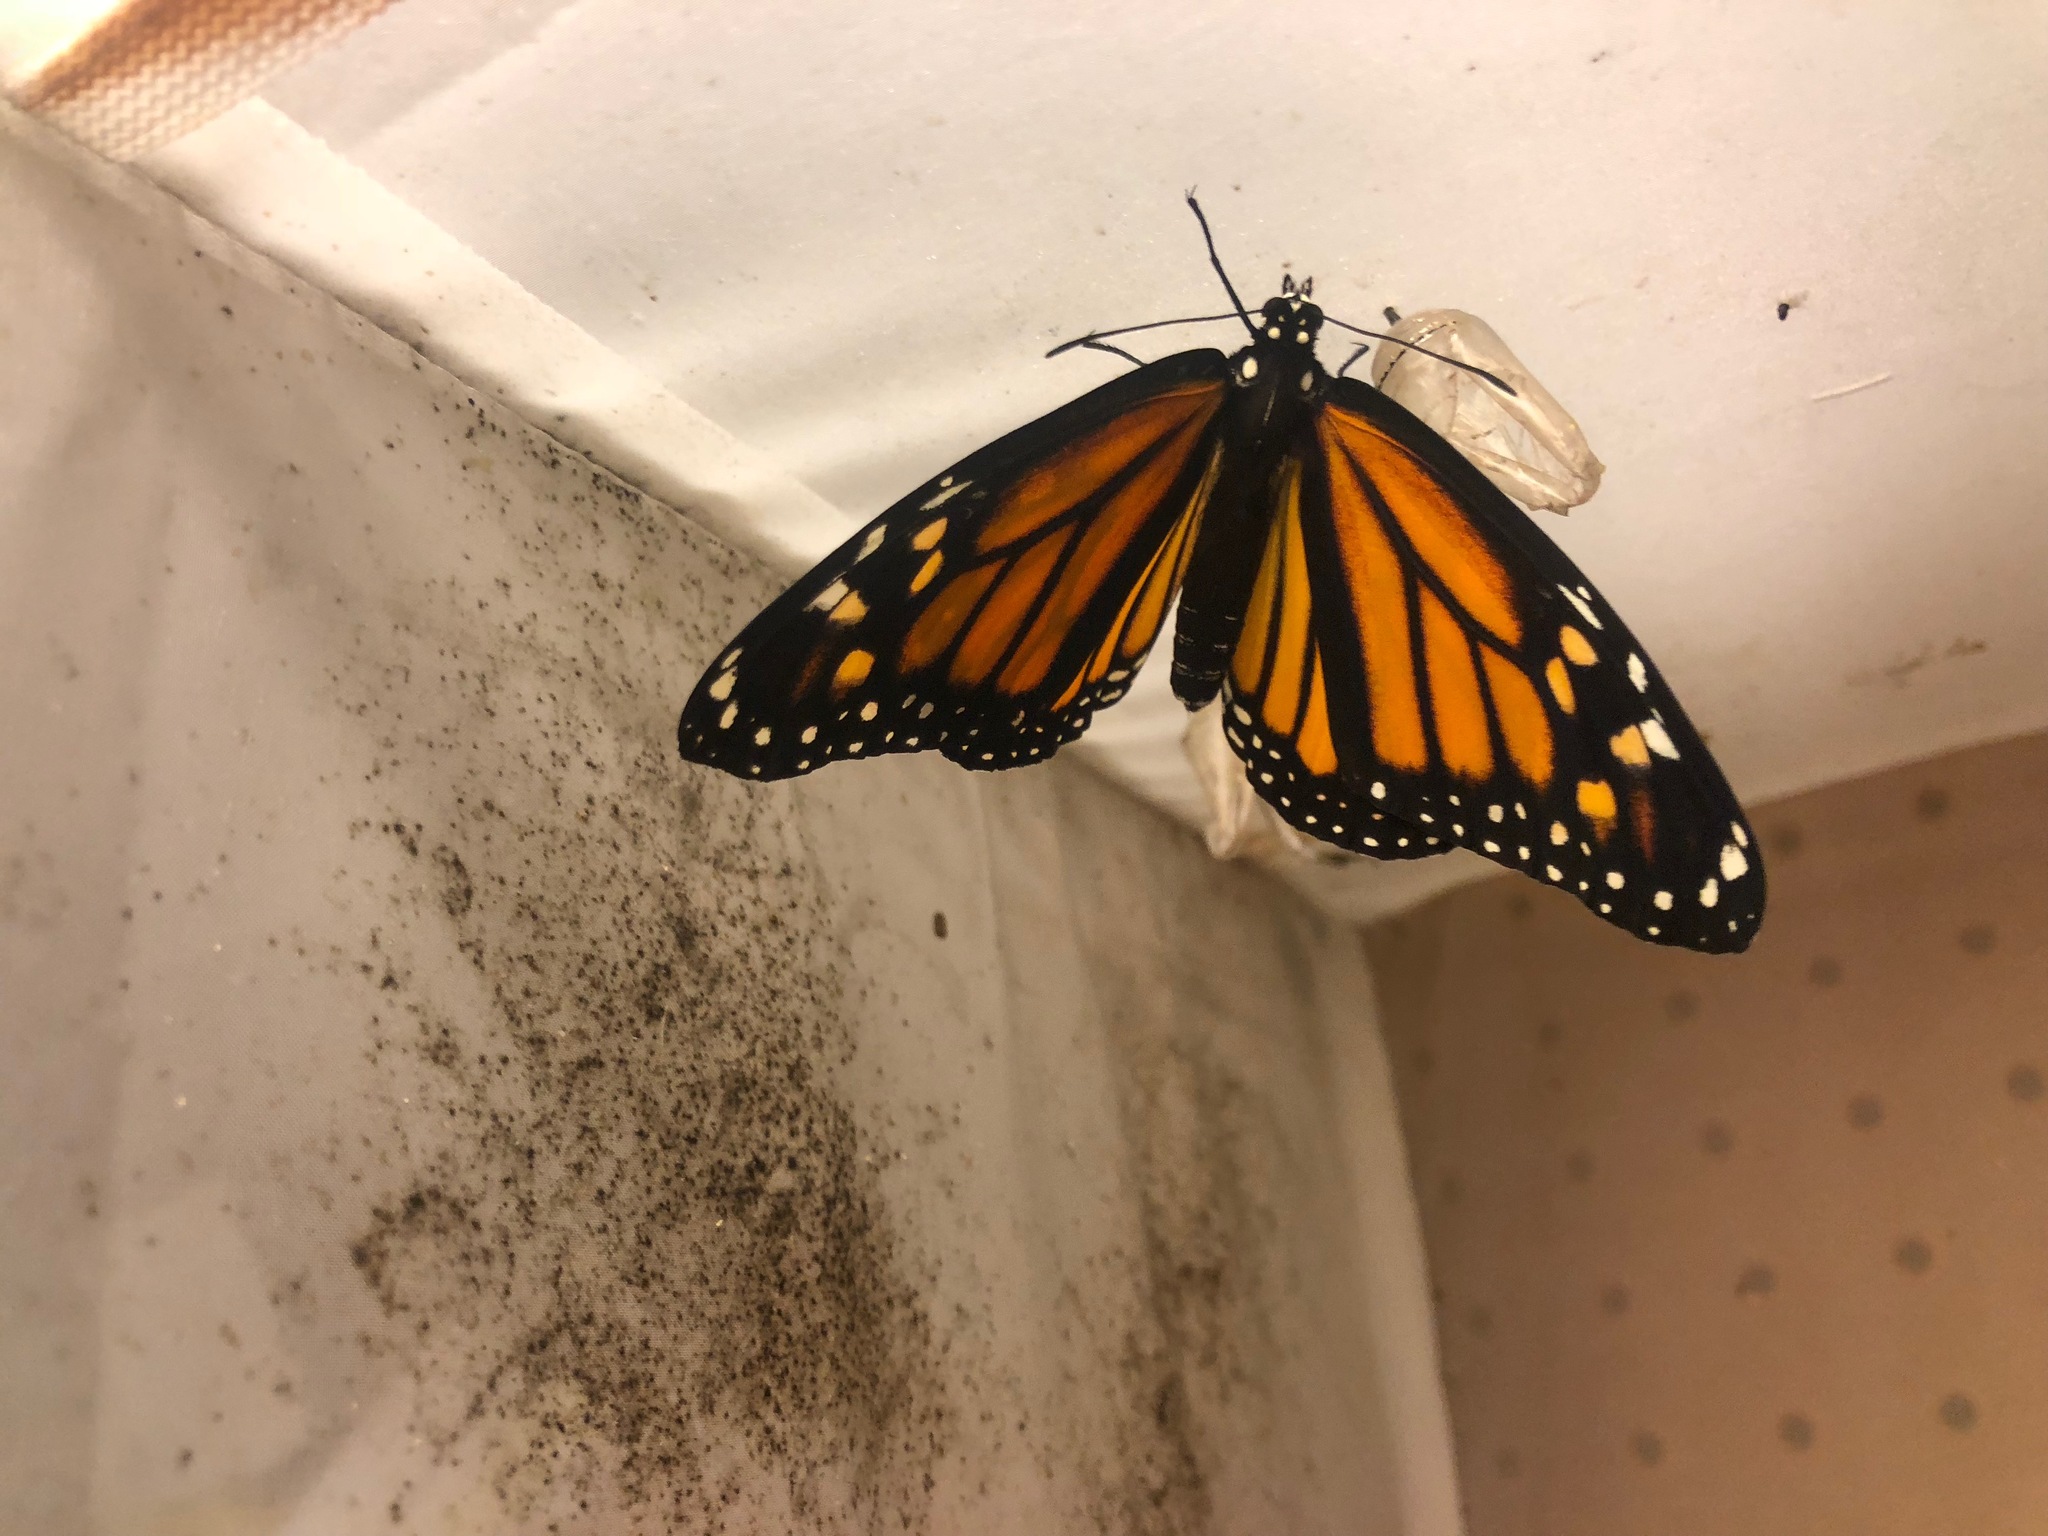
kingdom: Animalia
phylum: Arthropoda
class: Insecta
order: Lepidoptera
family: Nymphalidae
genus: Danaus
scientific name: Danaus plexippus
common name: Monarch
